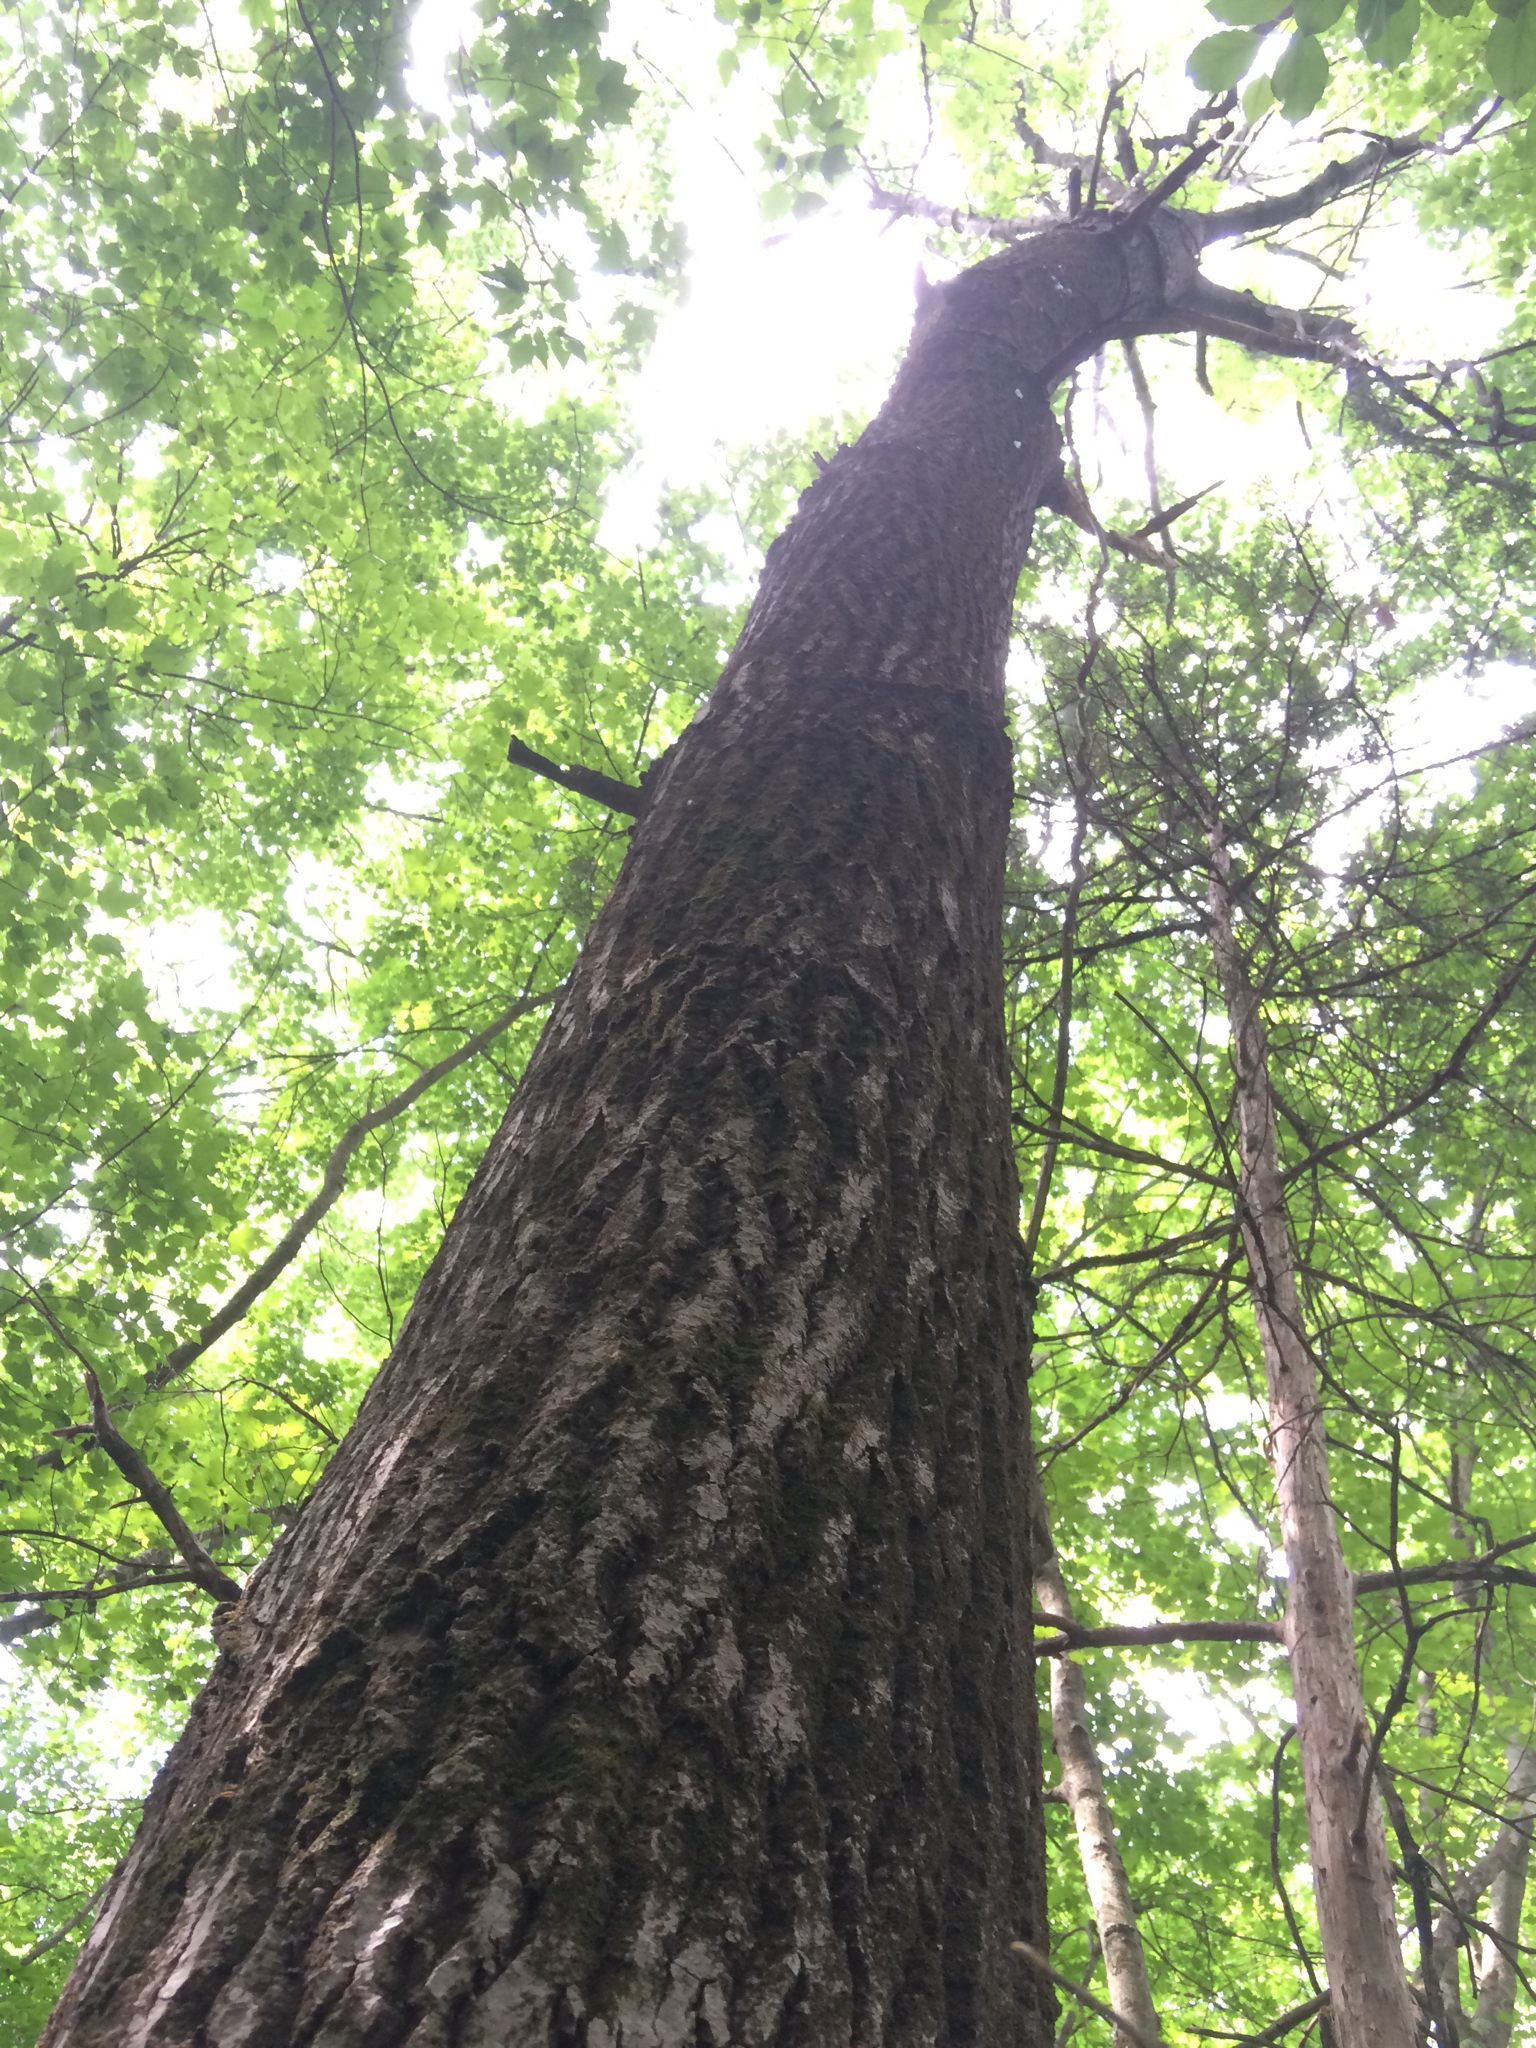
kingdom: Plantae
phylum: Tracheophyta
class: Magnoliopsida
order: Malpighiales
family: Salicaceae
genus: Populus
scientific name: Populus grandidentata
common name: Bigtooth aspen
